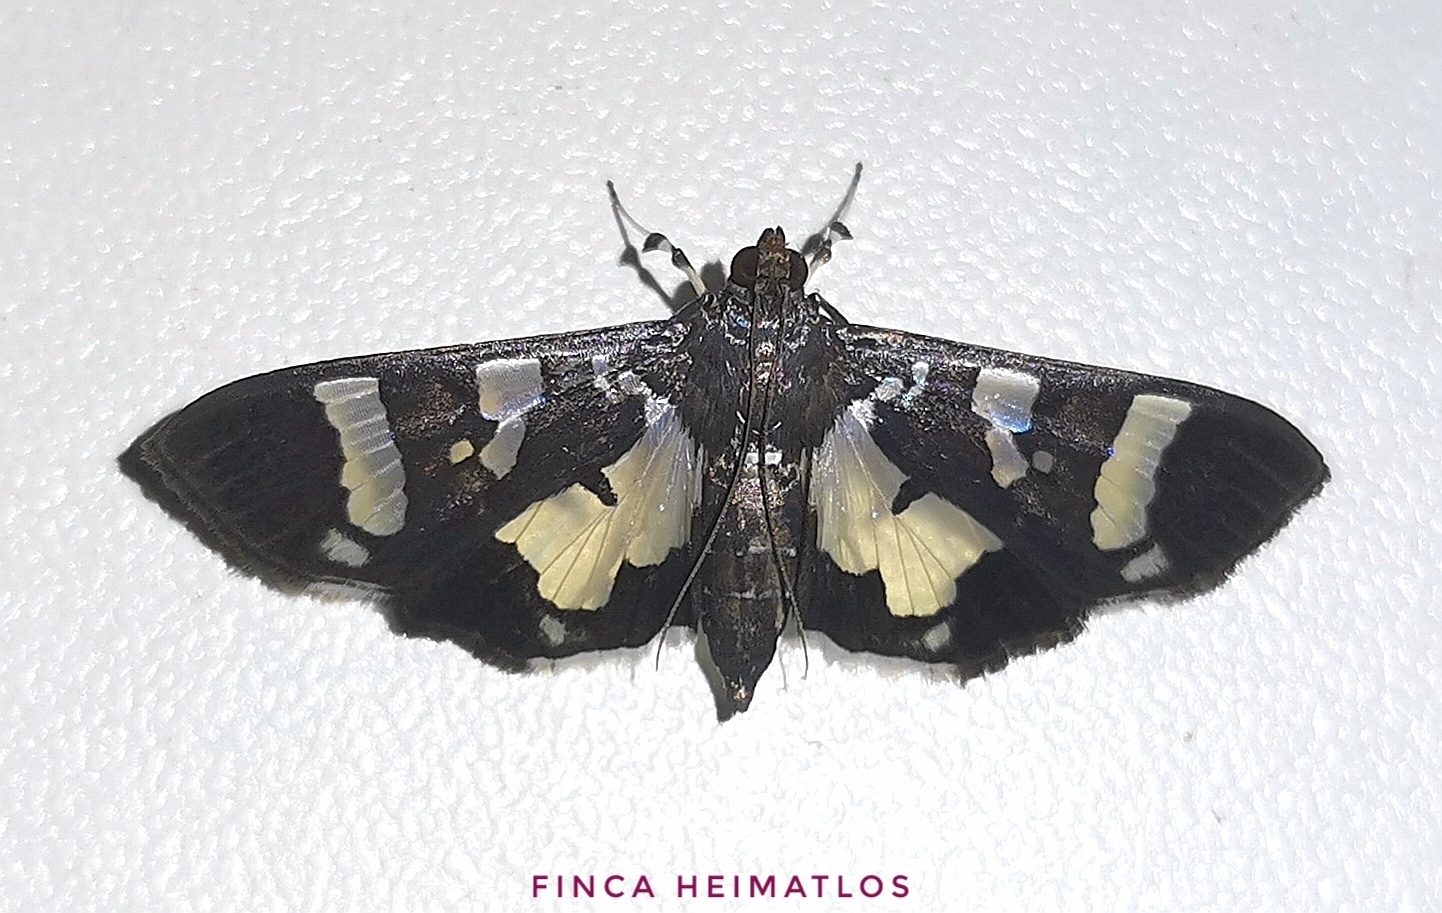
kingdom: Animalia
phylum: Arthropoda
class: Insecta
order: Lepidoptera
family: Crambidae
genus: Desmia
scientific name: Desmia bajulalis
